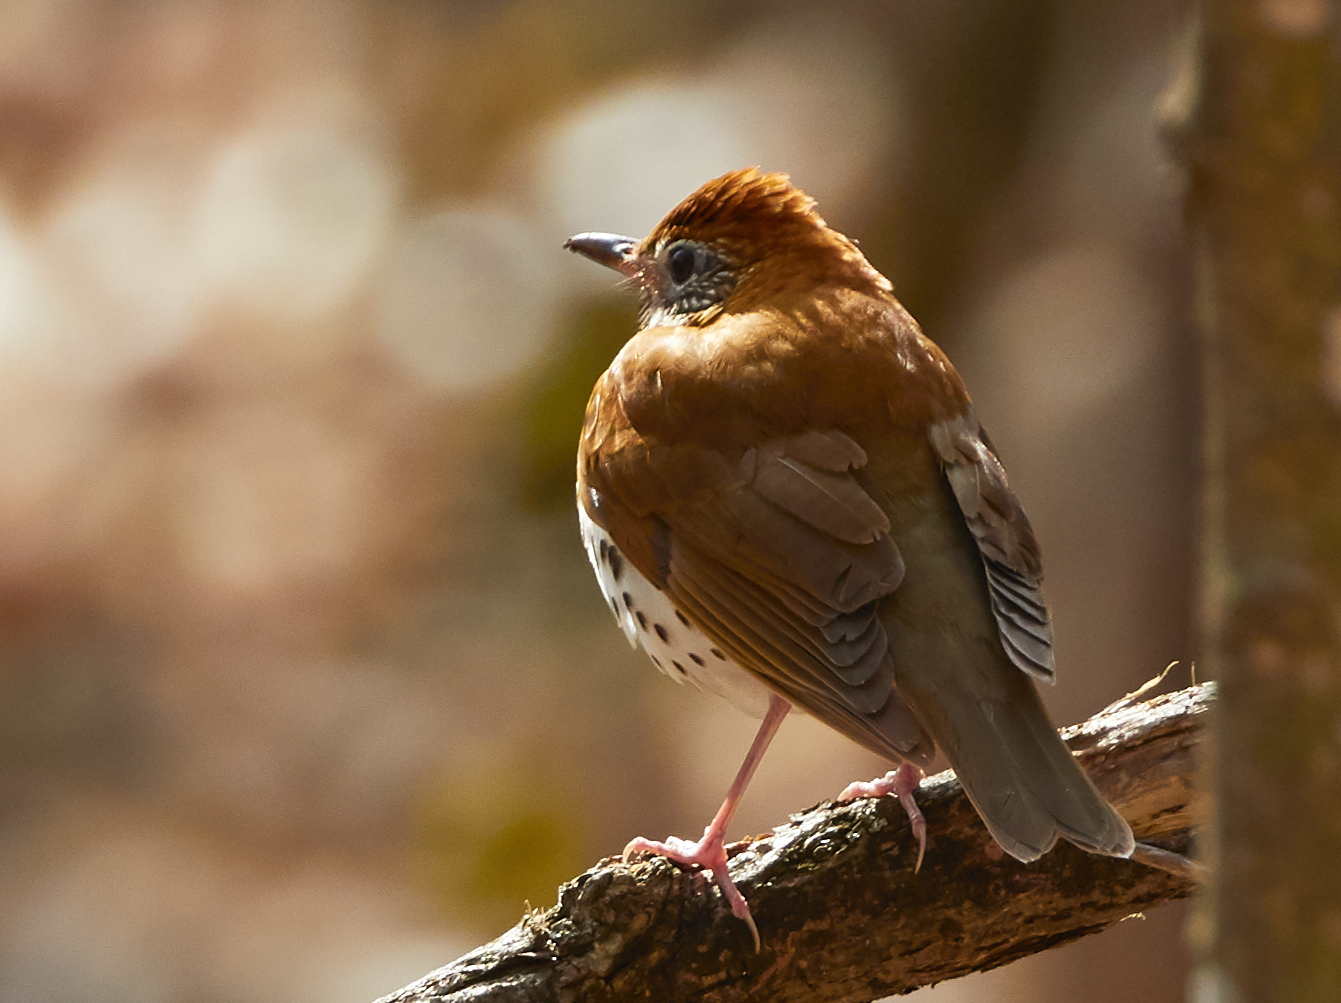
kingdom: Animalia
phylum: Chordata
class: Aves
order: Passeriformes
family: Turdidae
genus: Hylocichla
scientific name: Hylocichla mustelina
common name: Wood thrush
